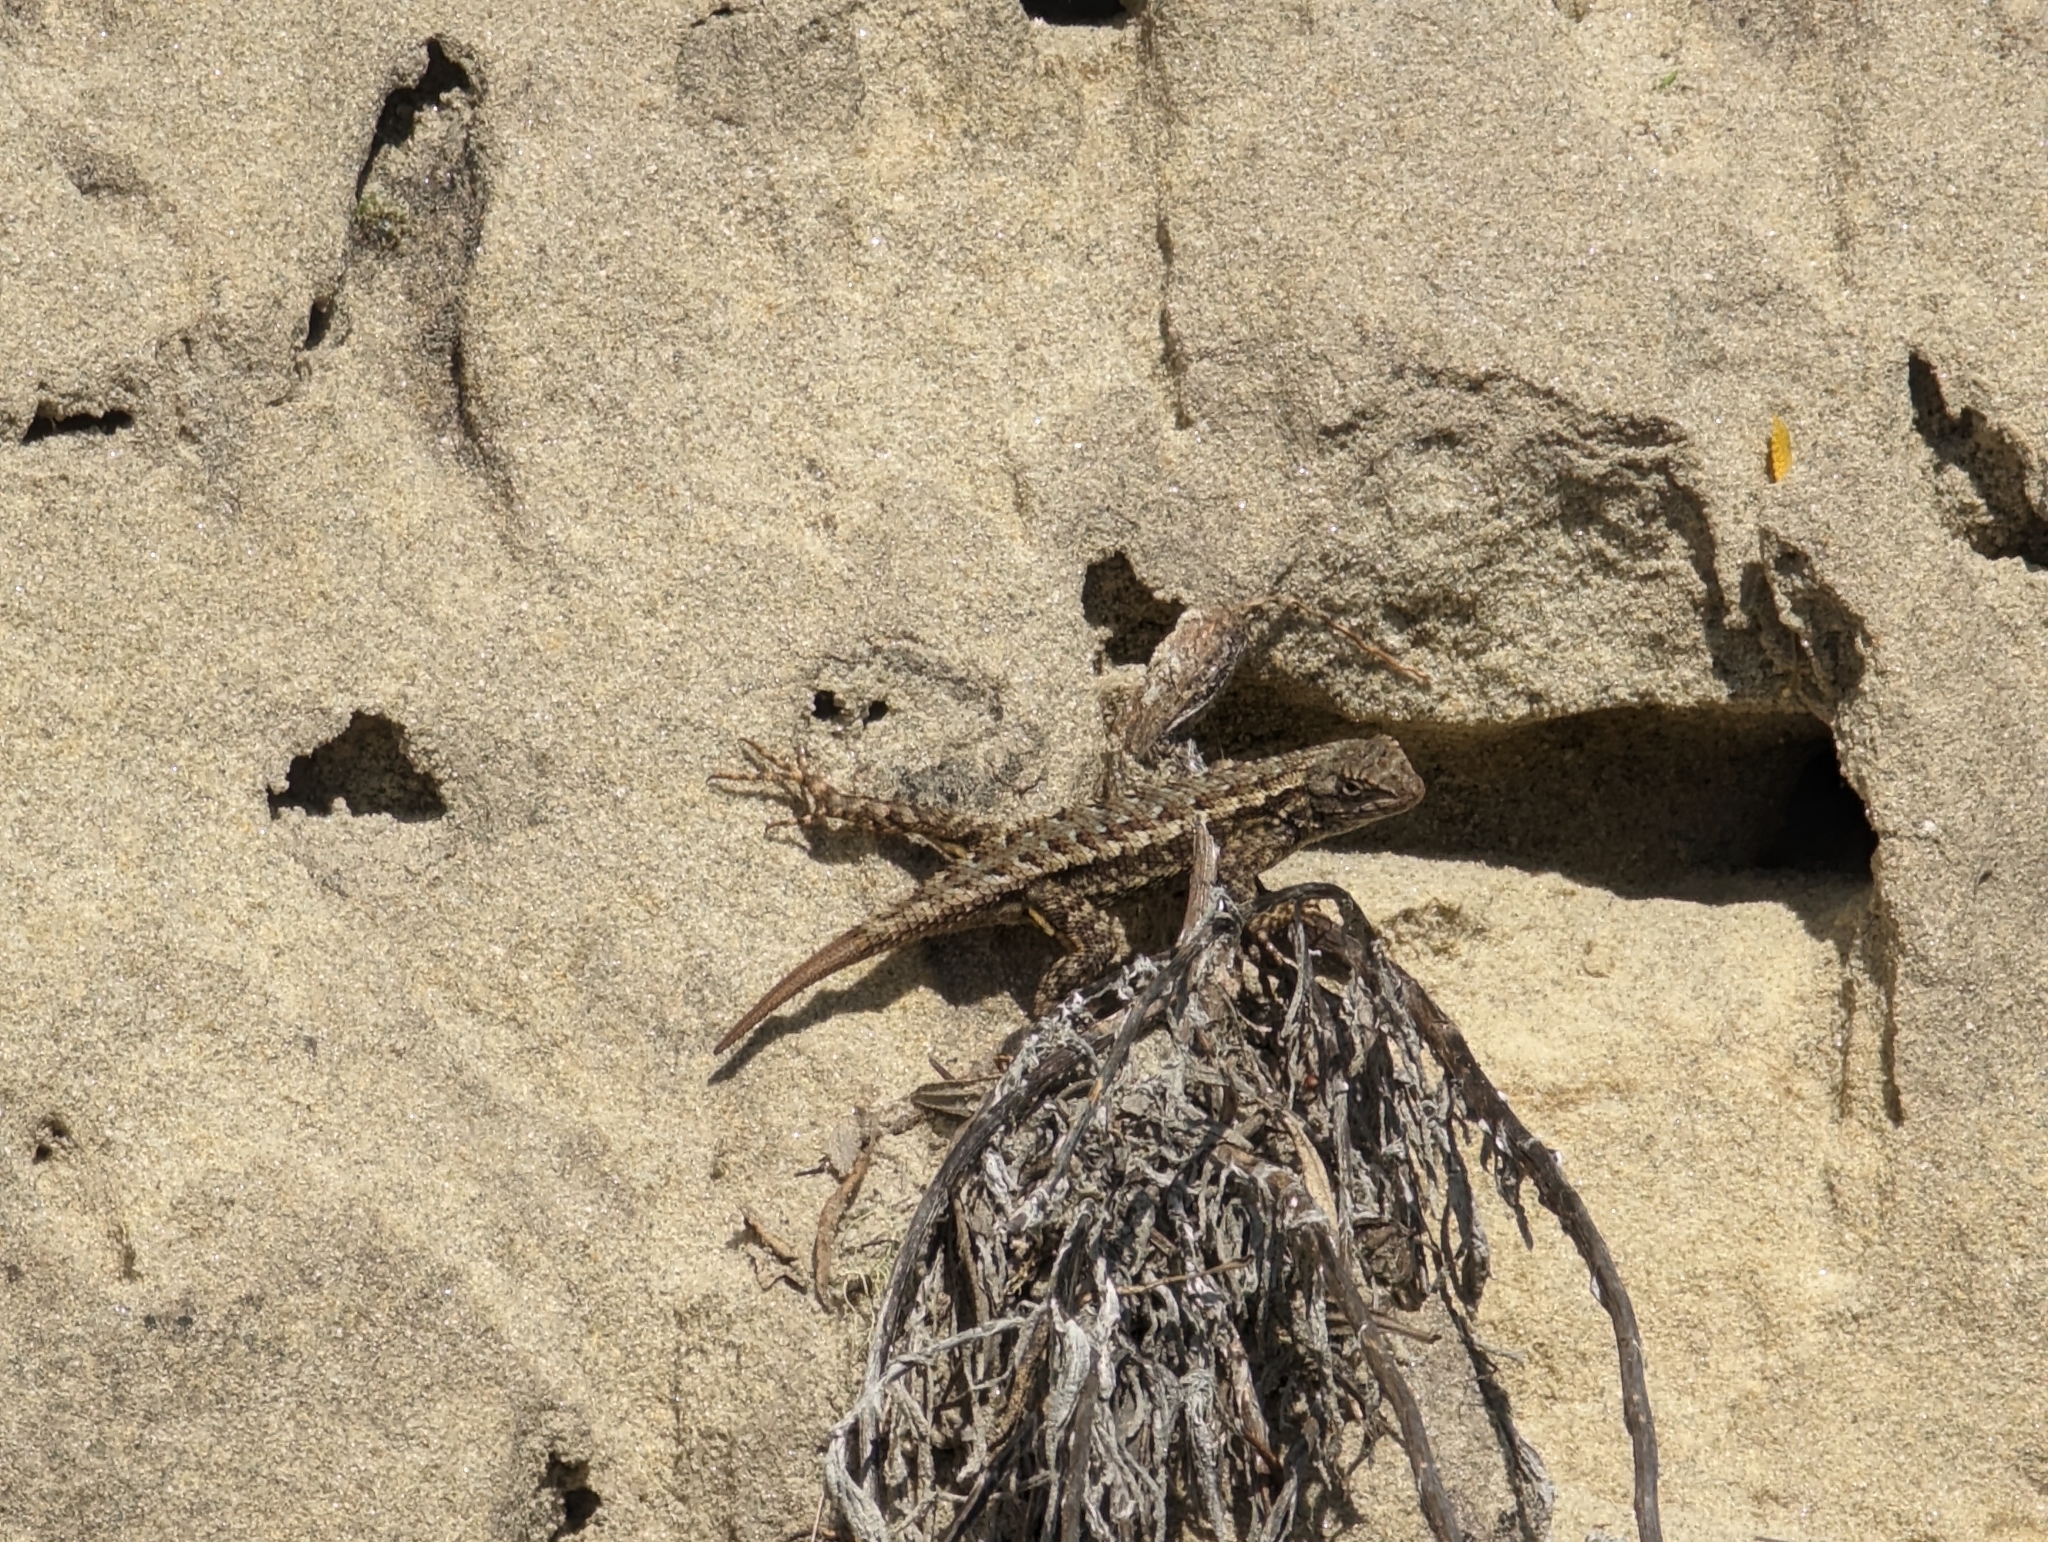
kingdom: Animalia
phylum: Chordata
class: Squamata
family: Phrynosomatidae
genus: Sceloporus
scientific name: Sceloporus occidentalis
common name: Western fence lizard
